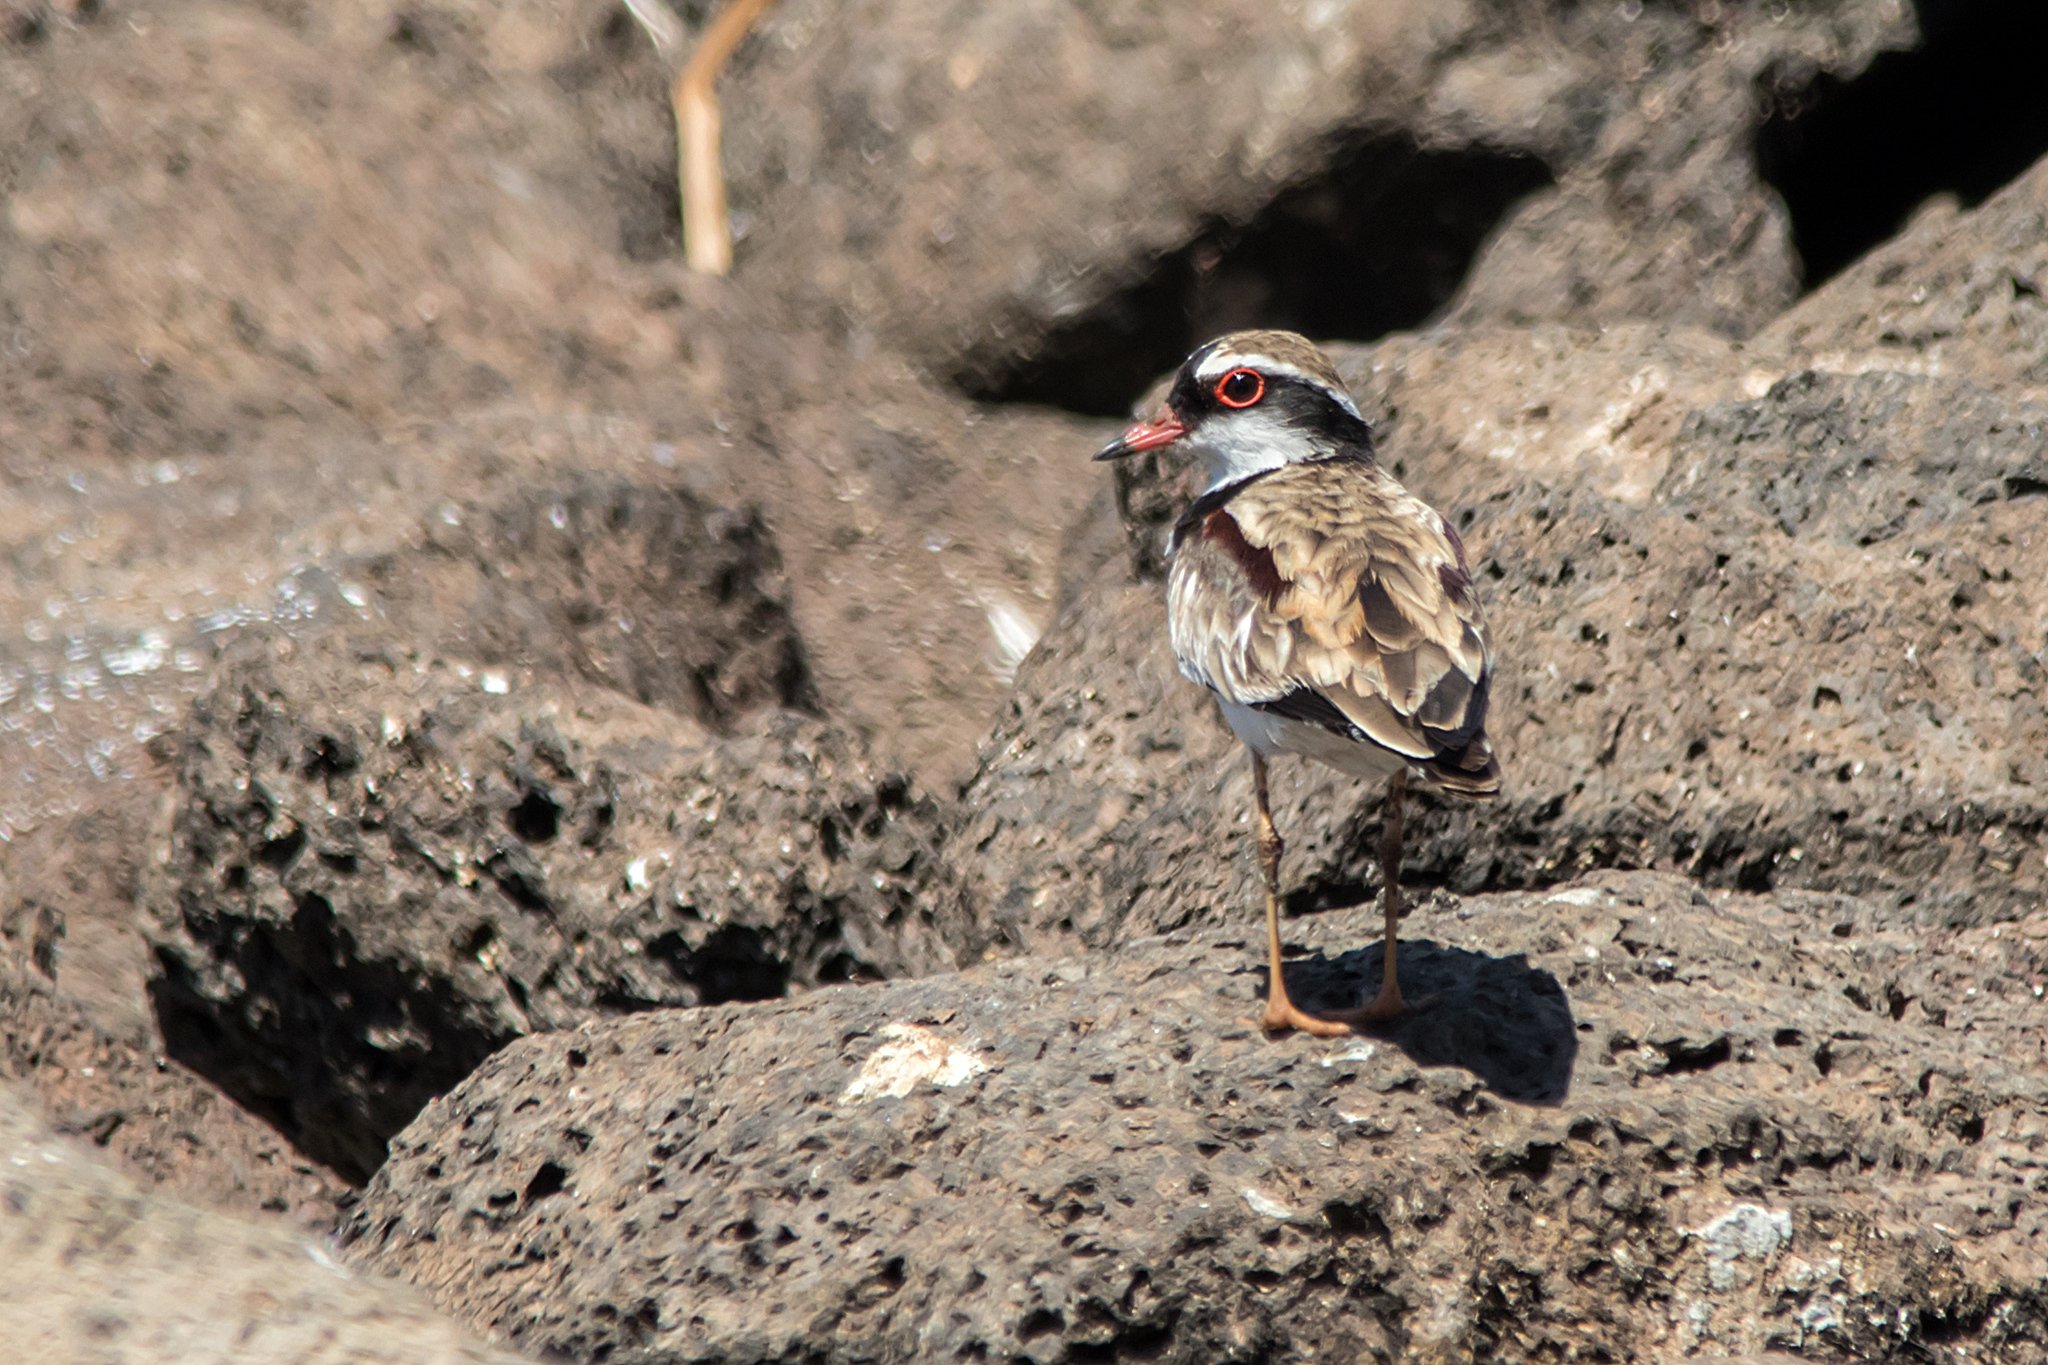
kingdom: Animalia
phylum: Chordata
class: Aves
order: Charadriiformes
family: Charadriidae
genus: Elseyornis
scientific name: Elseyornis melanops
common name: Black-fronted dotterel
